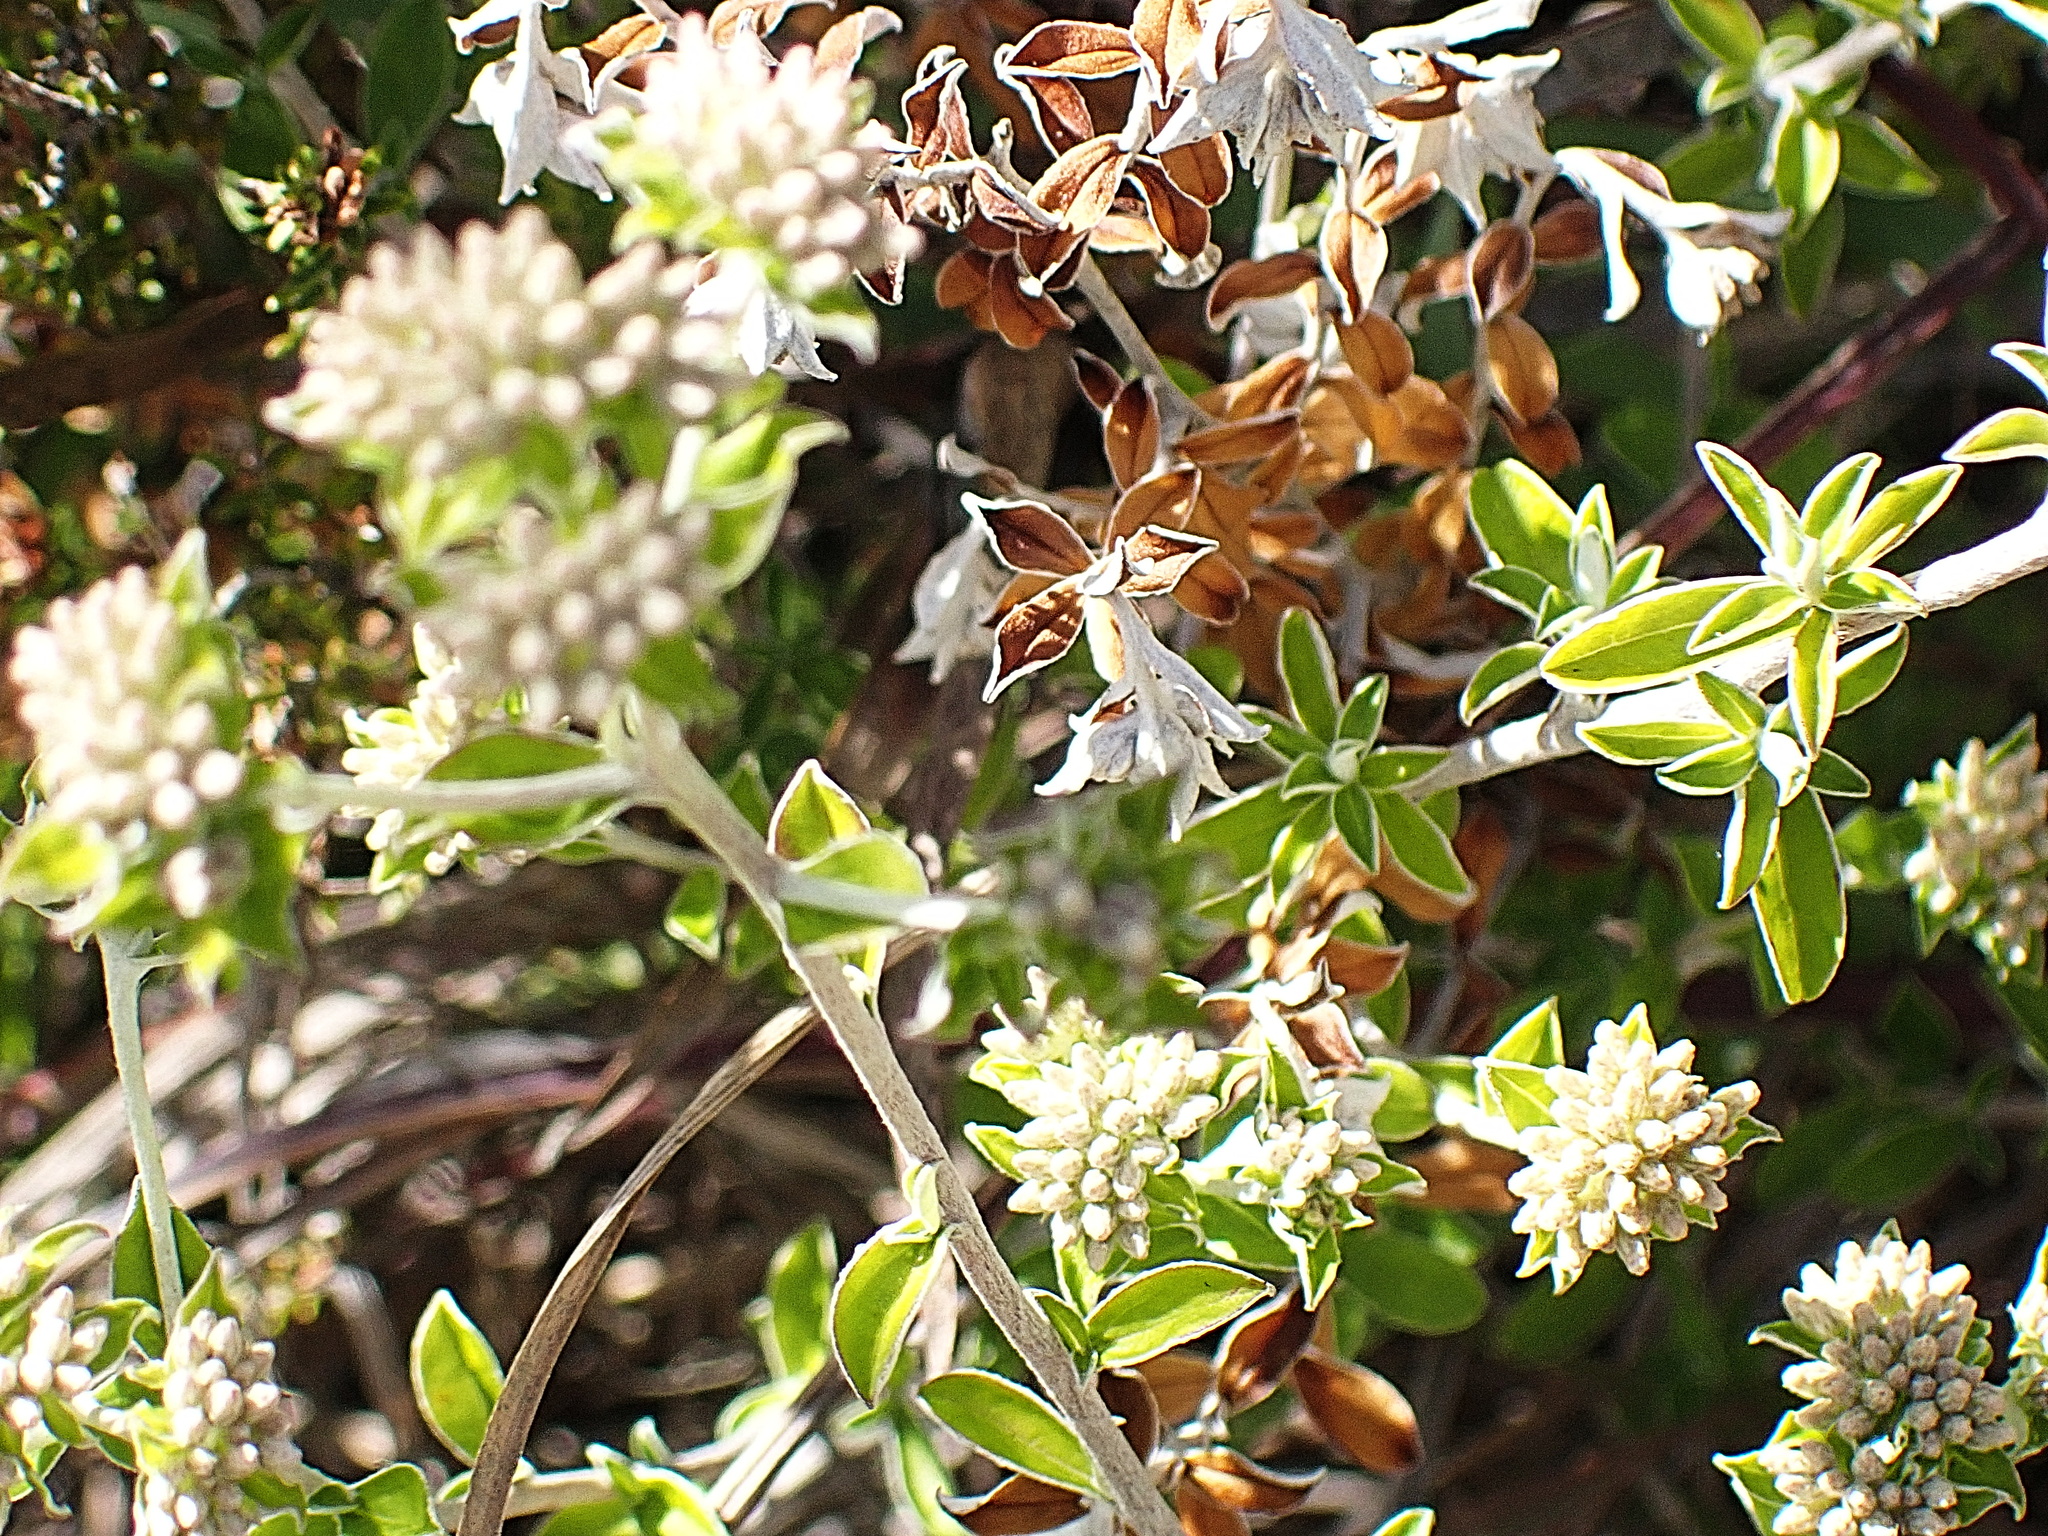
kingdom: Plantae
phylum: Tracheophyta
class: Magnoliopsida
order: Asterales
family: Asteraceae
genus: Plecostachys
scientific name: Plecostachys polifolia
